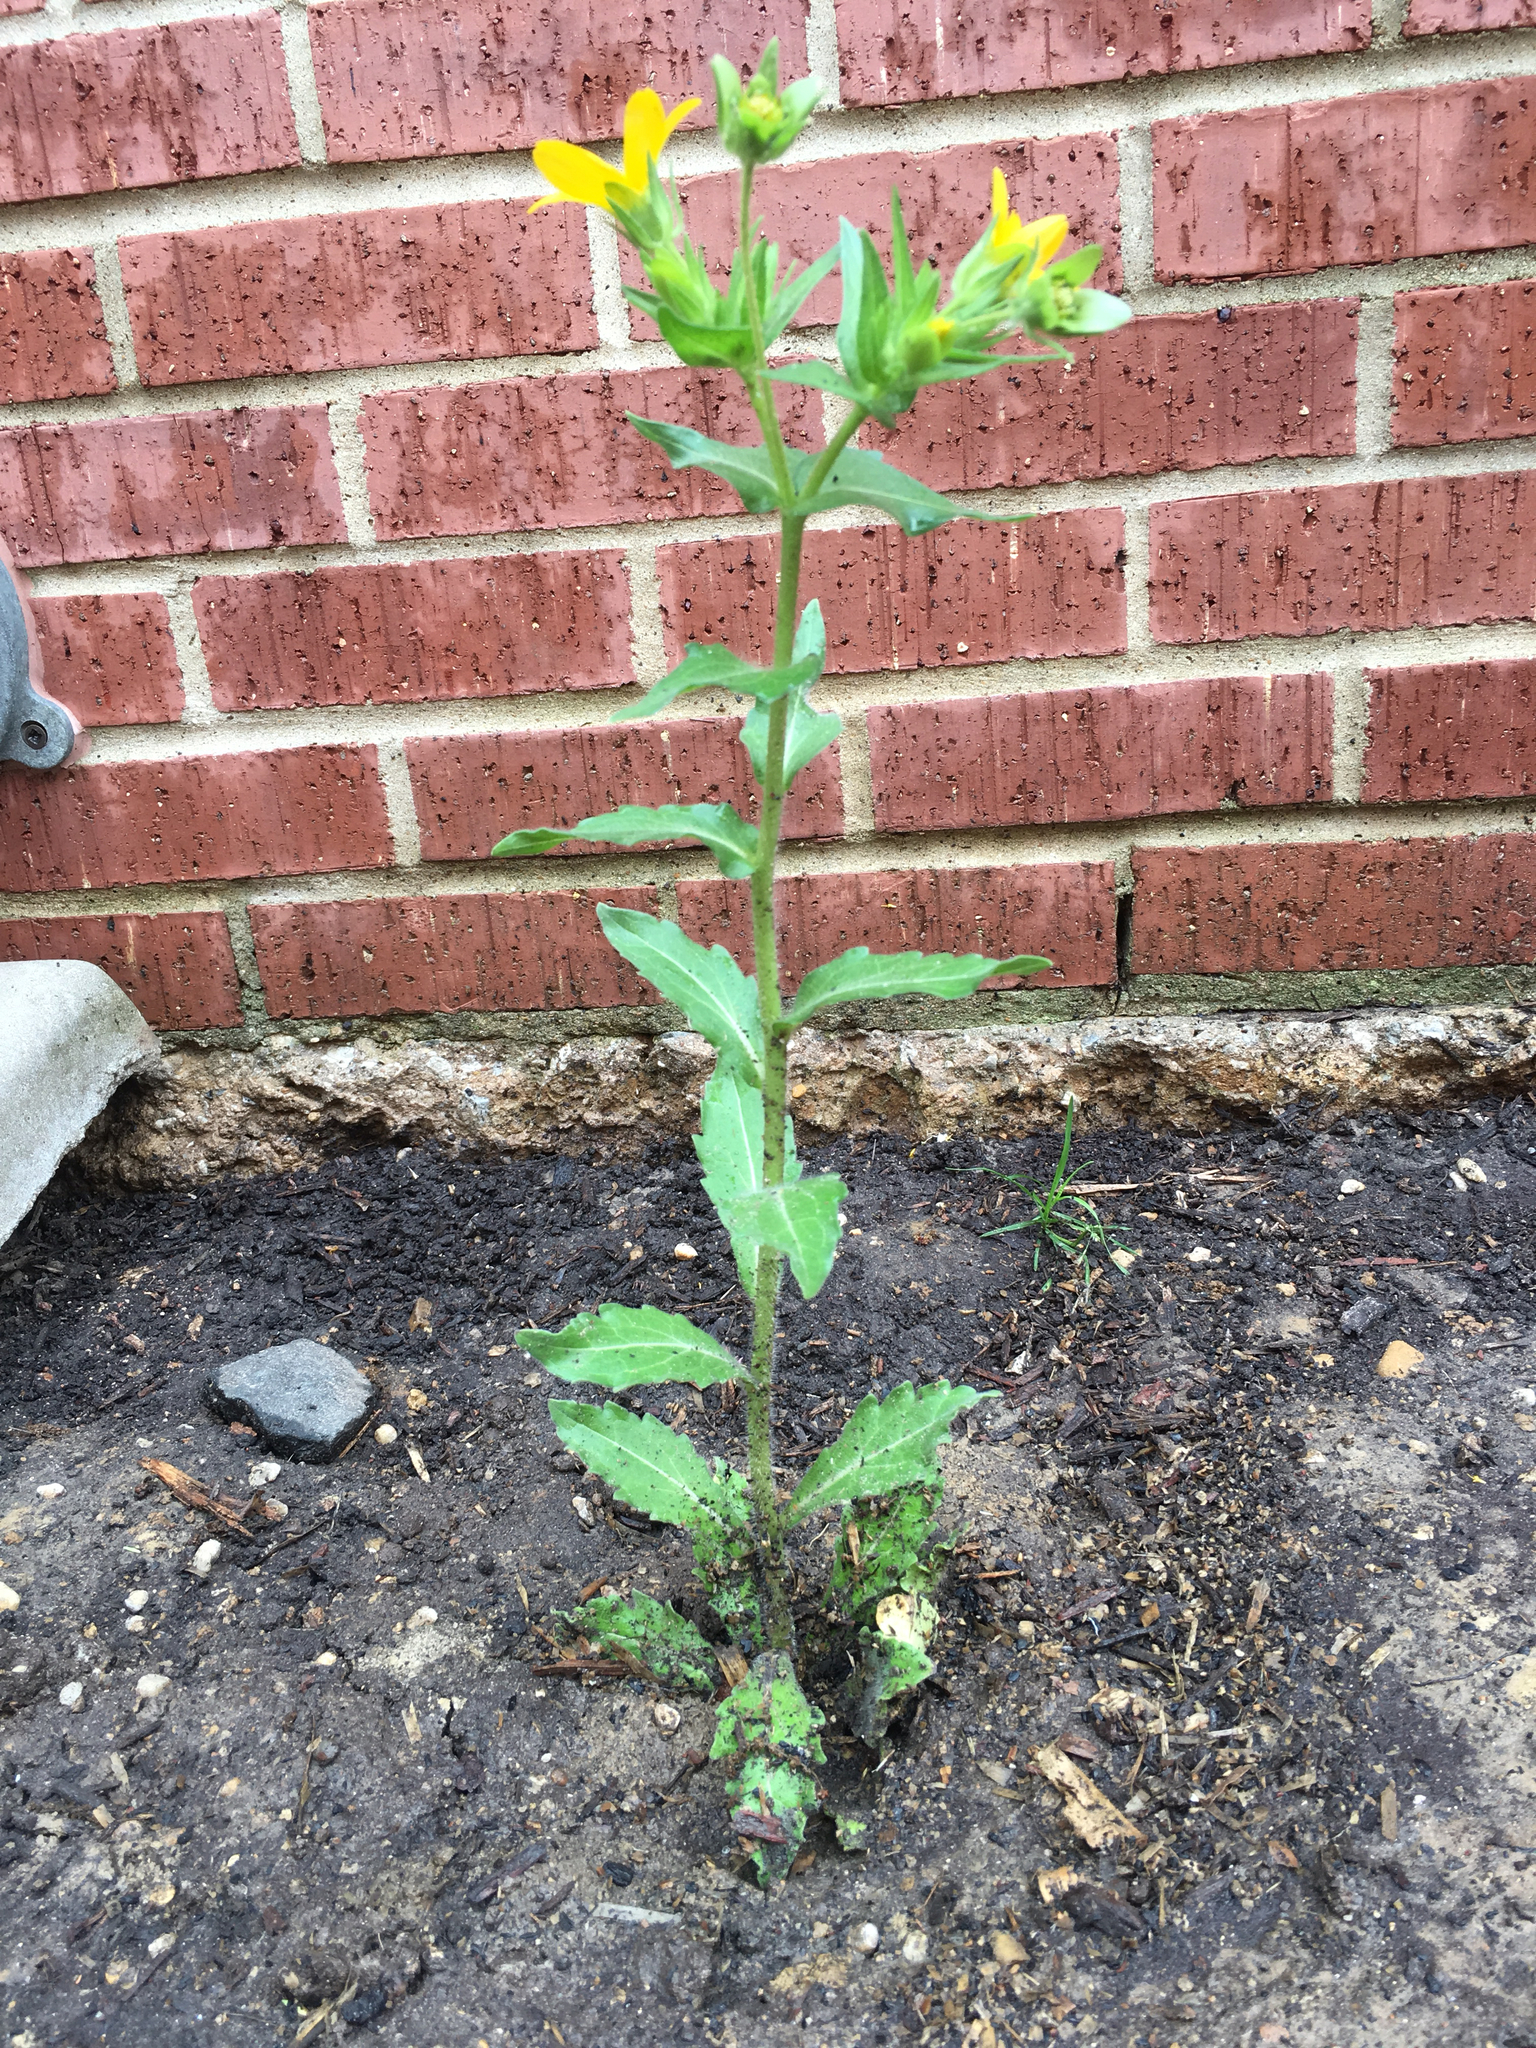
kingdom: Plantae
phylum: Tracheophyta
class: Magnoliopsida
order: Asterales
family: Asteraceae
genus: Lindheimera
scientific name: Lindheimera texana
